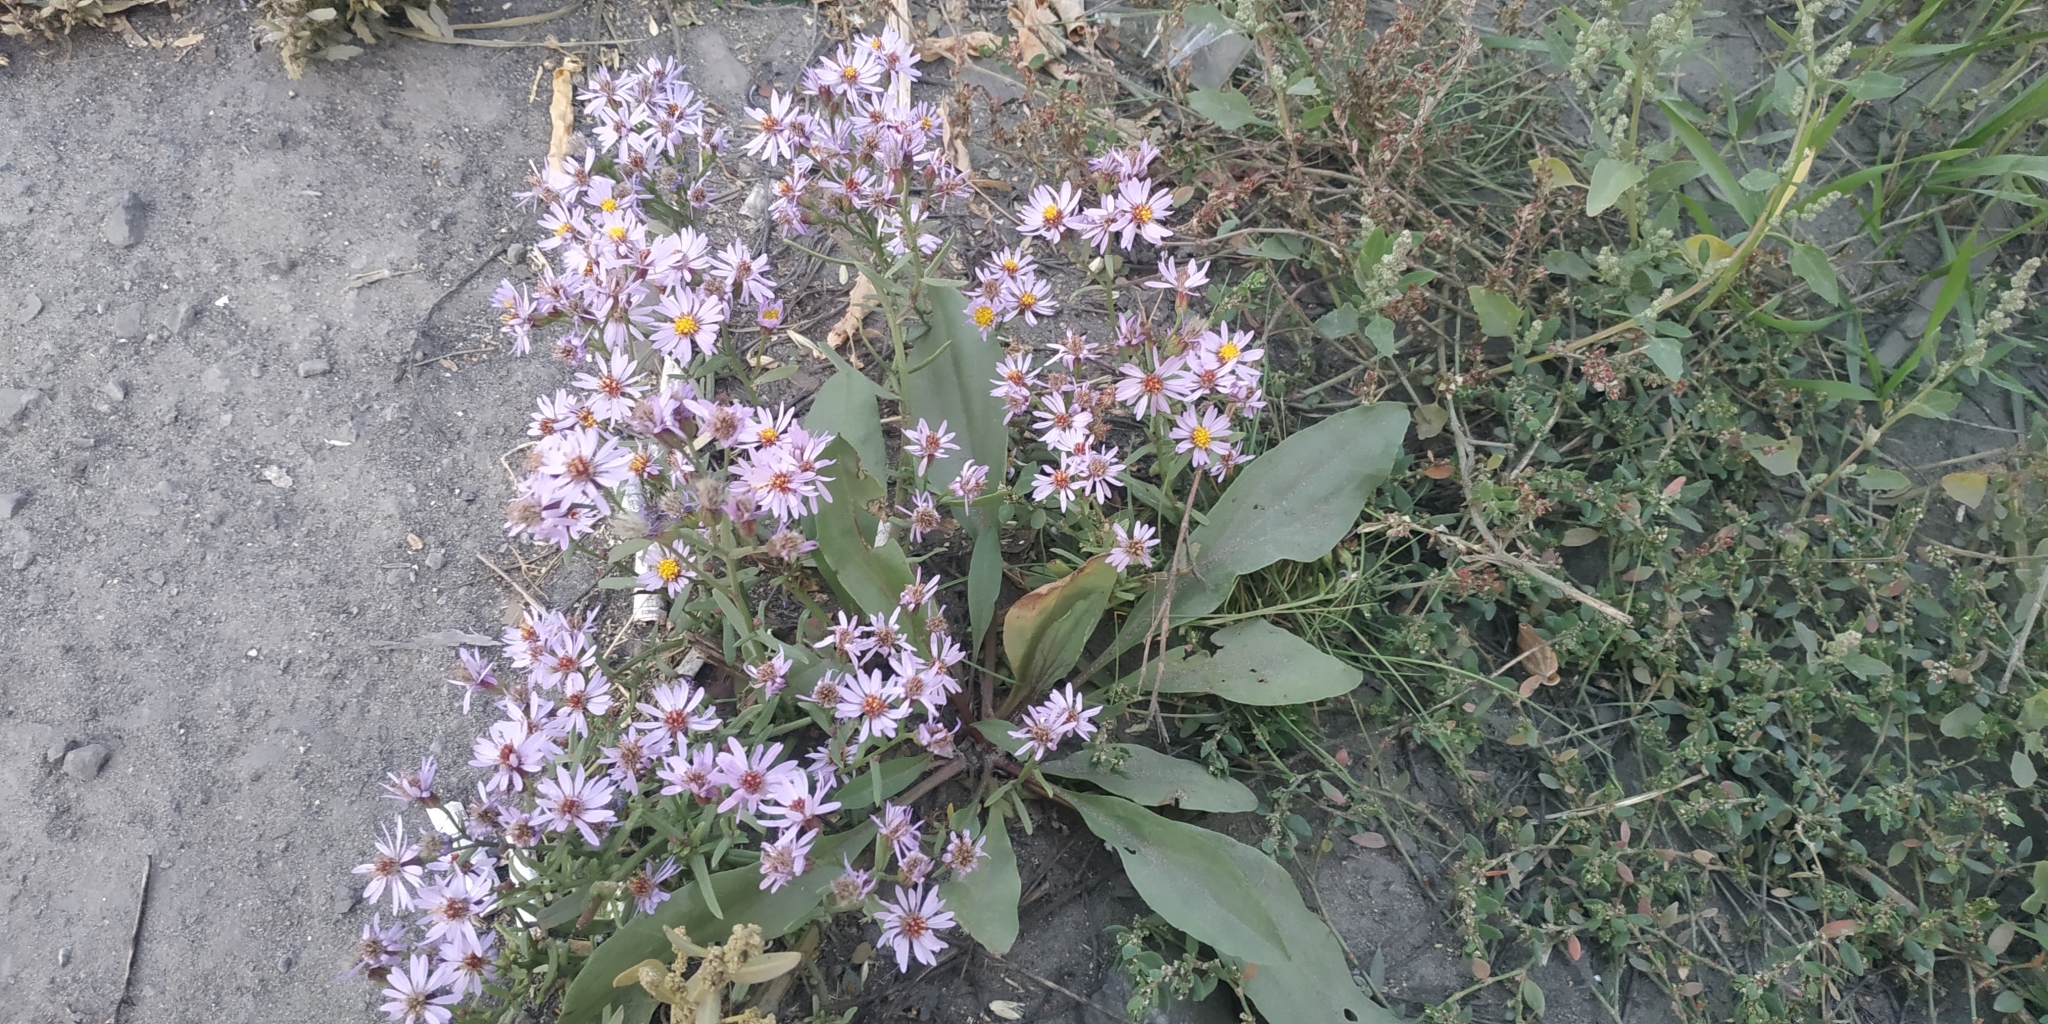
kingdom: Plantae
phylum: Tracheophyta
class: Magnoliopsida
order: Asterales
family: Asteraceae
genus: Tripolium
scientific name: Tripolium pannonicum
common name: Sea aster
